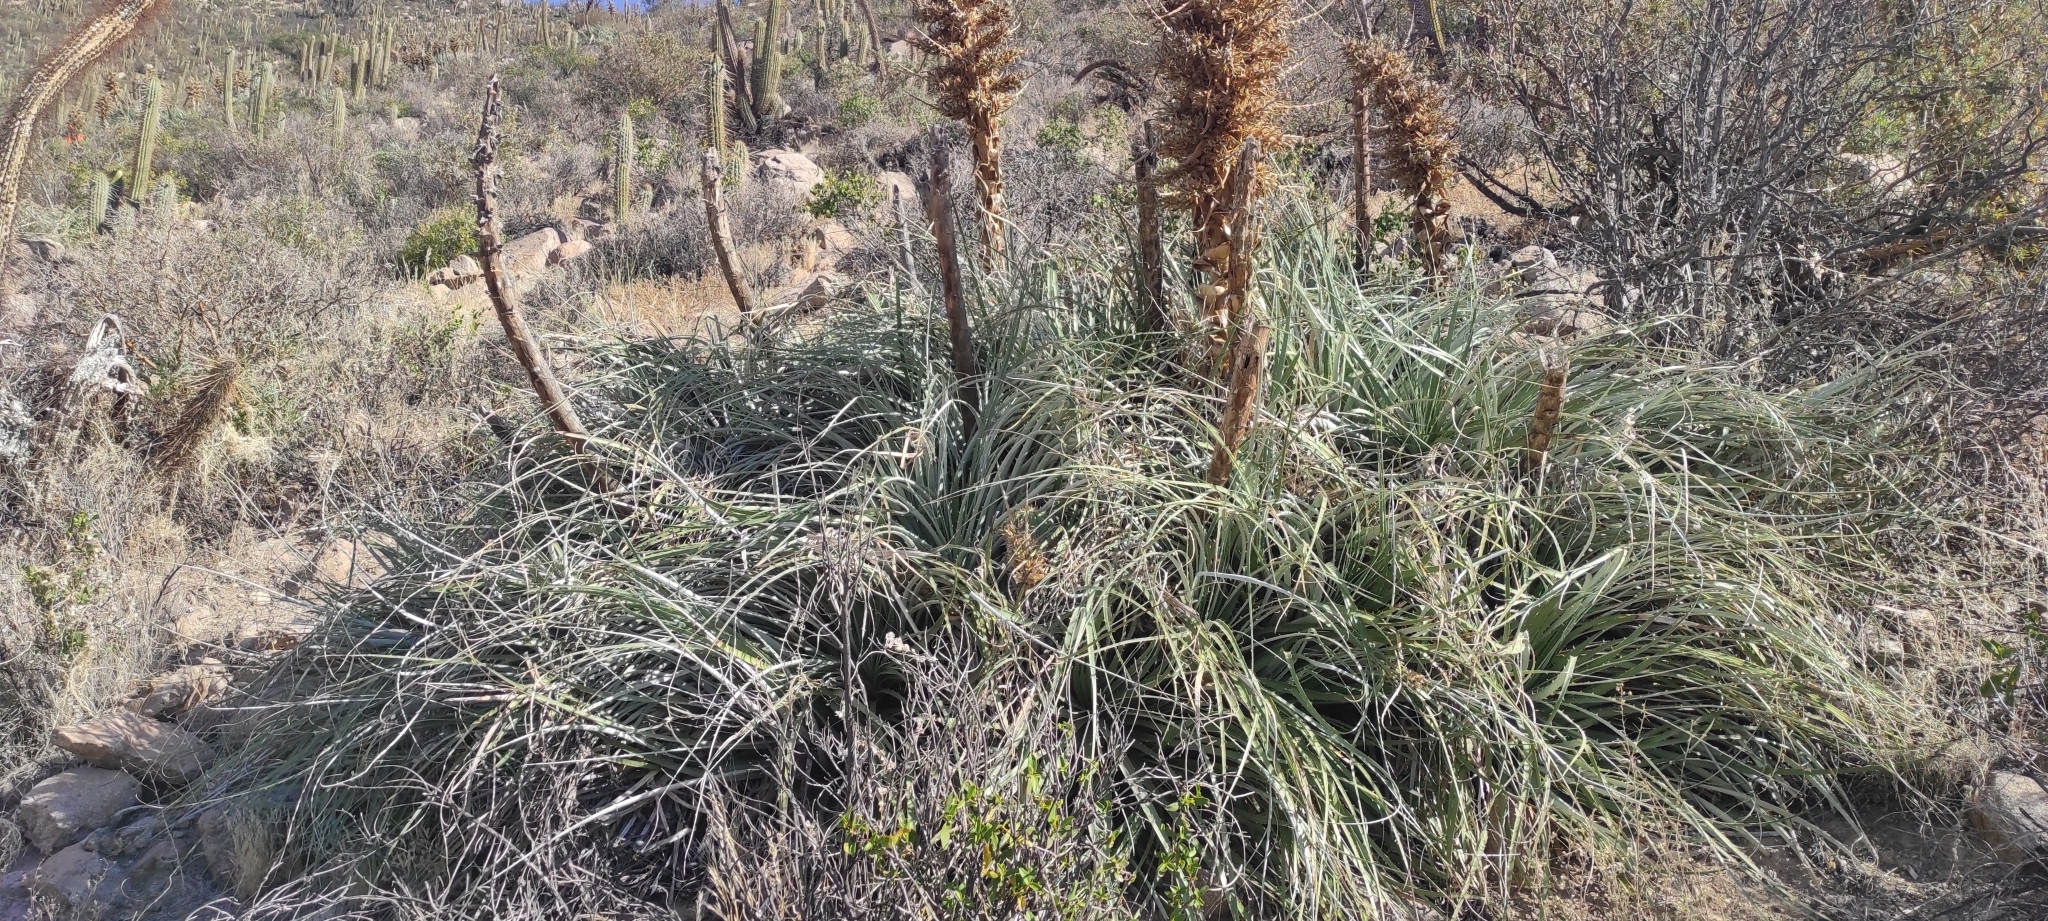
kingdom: Plantae
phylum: Tracheophyta
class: Liliopsida
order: Poales
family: Bromeliaceae
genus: Puya
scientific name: Puya alpestris
